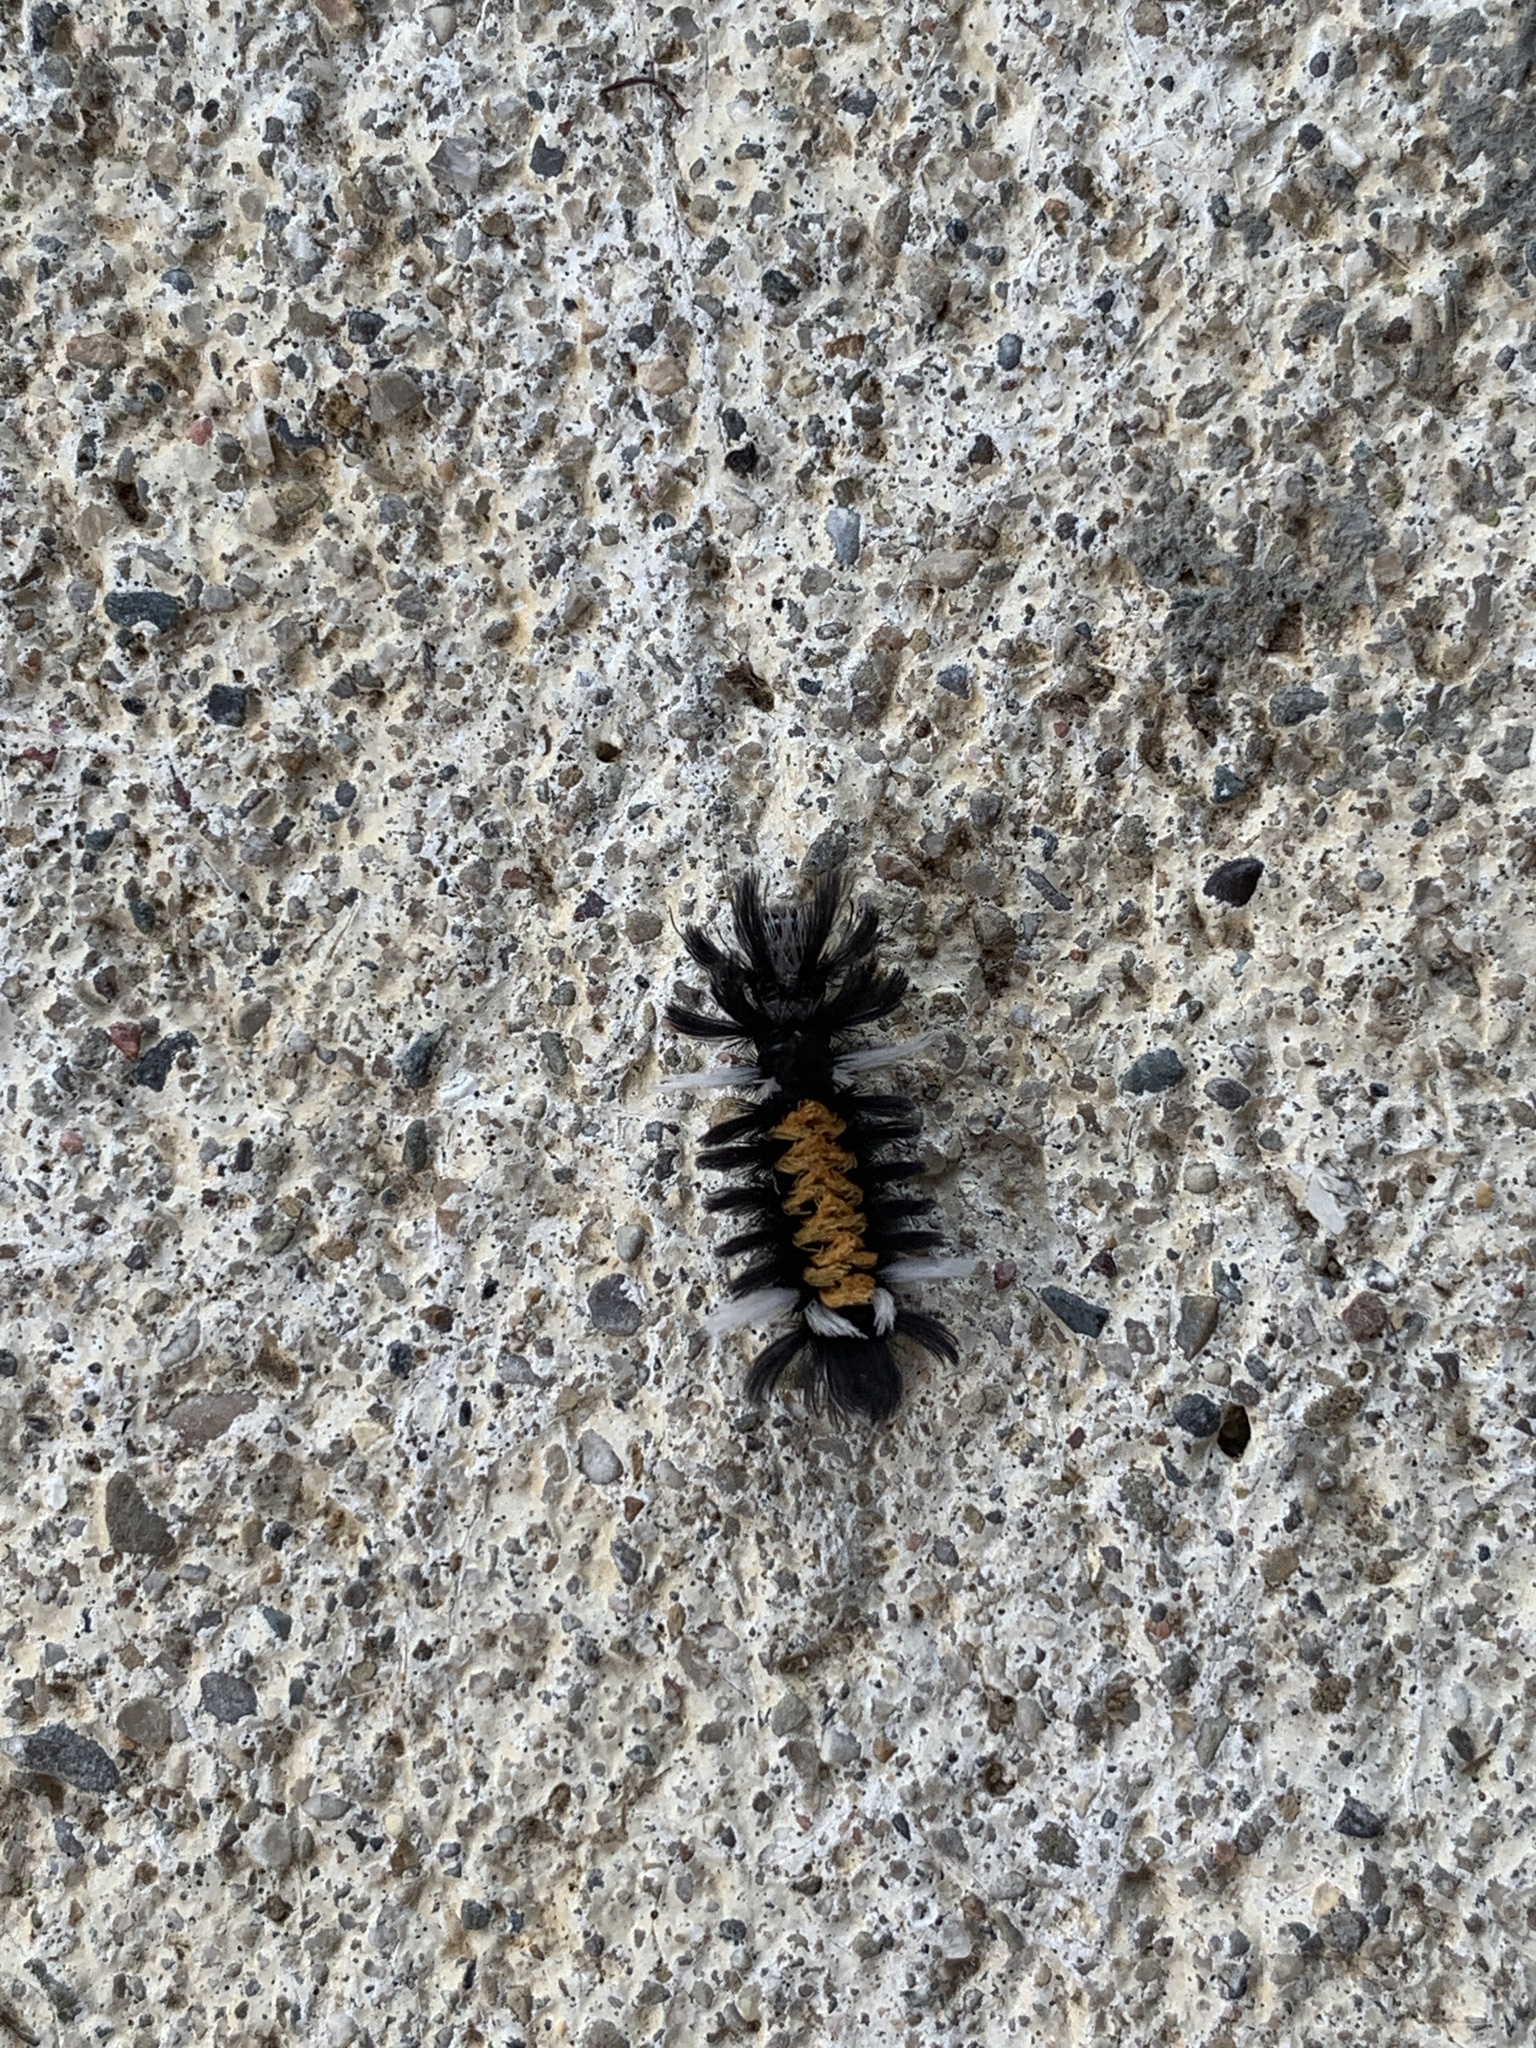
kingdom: Animalia
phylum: Arthropoda
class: Insecta
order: Lepidoptera
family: Erebidae
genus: Euchaetes
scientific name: Euchaetes egle
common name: Milkweed tussock moth
